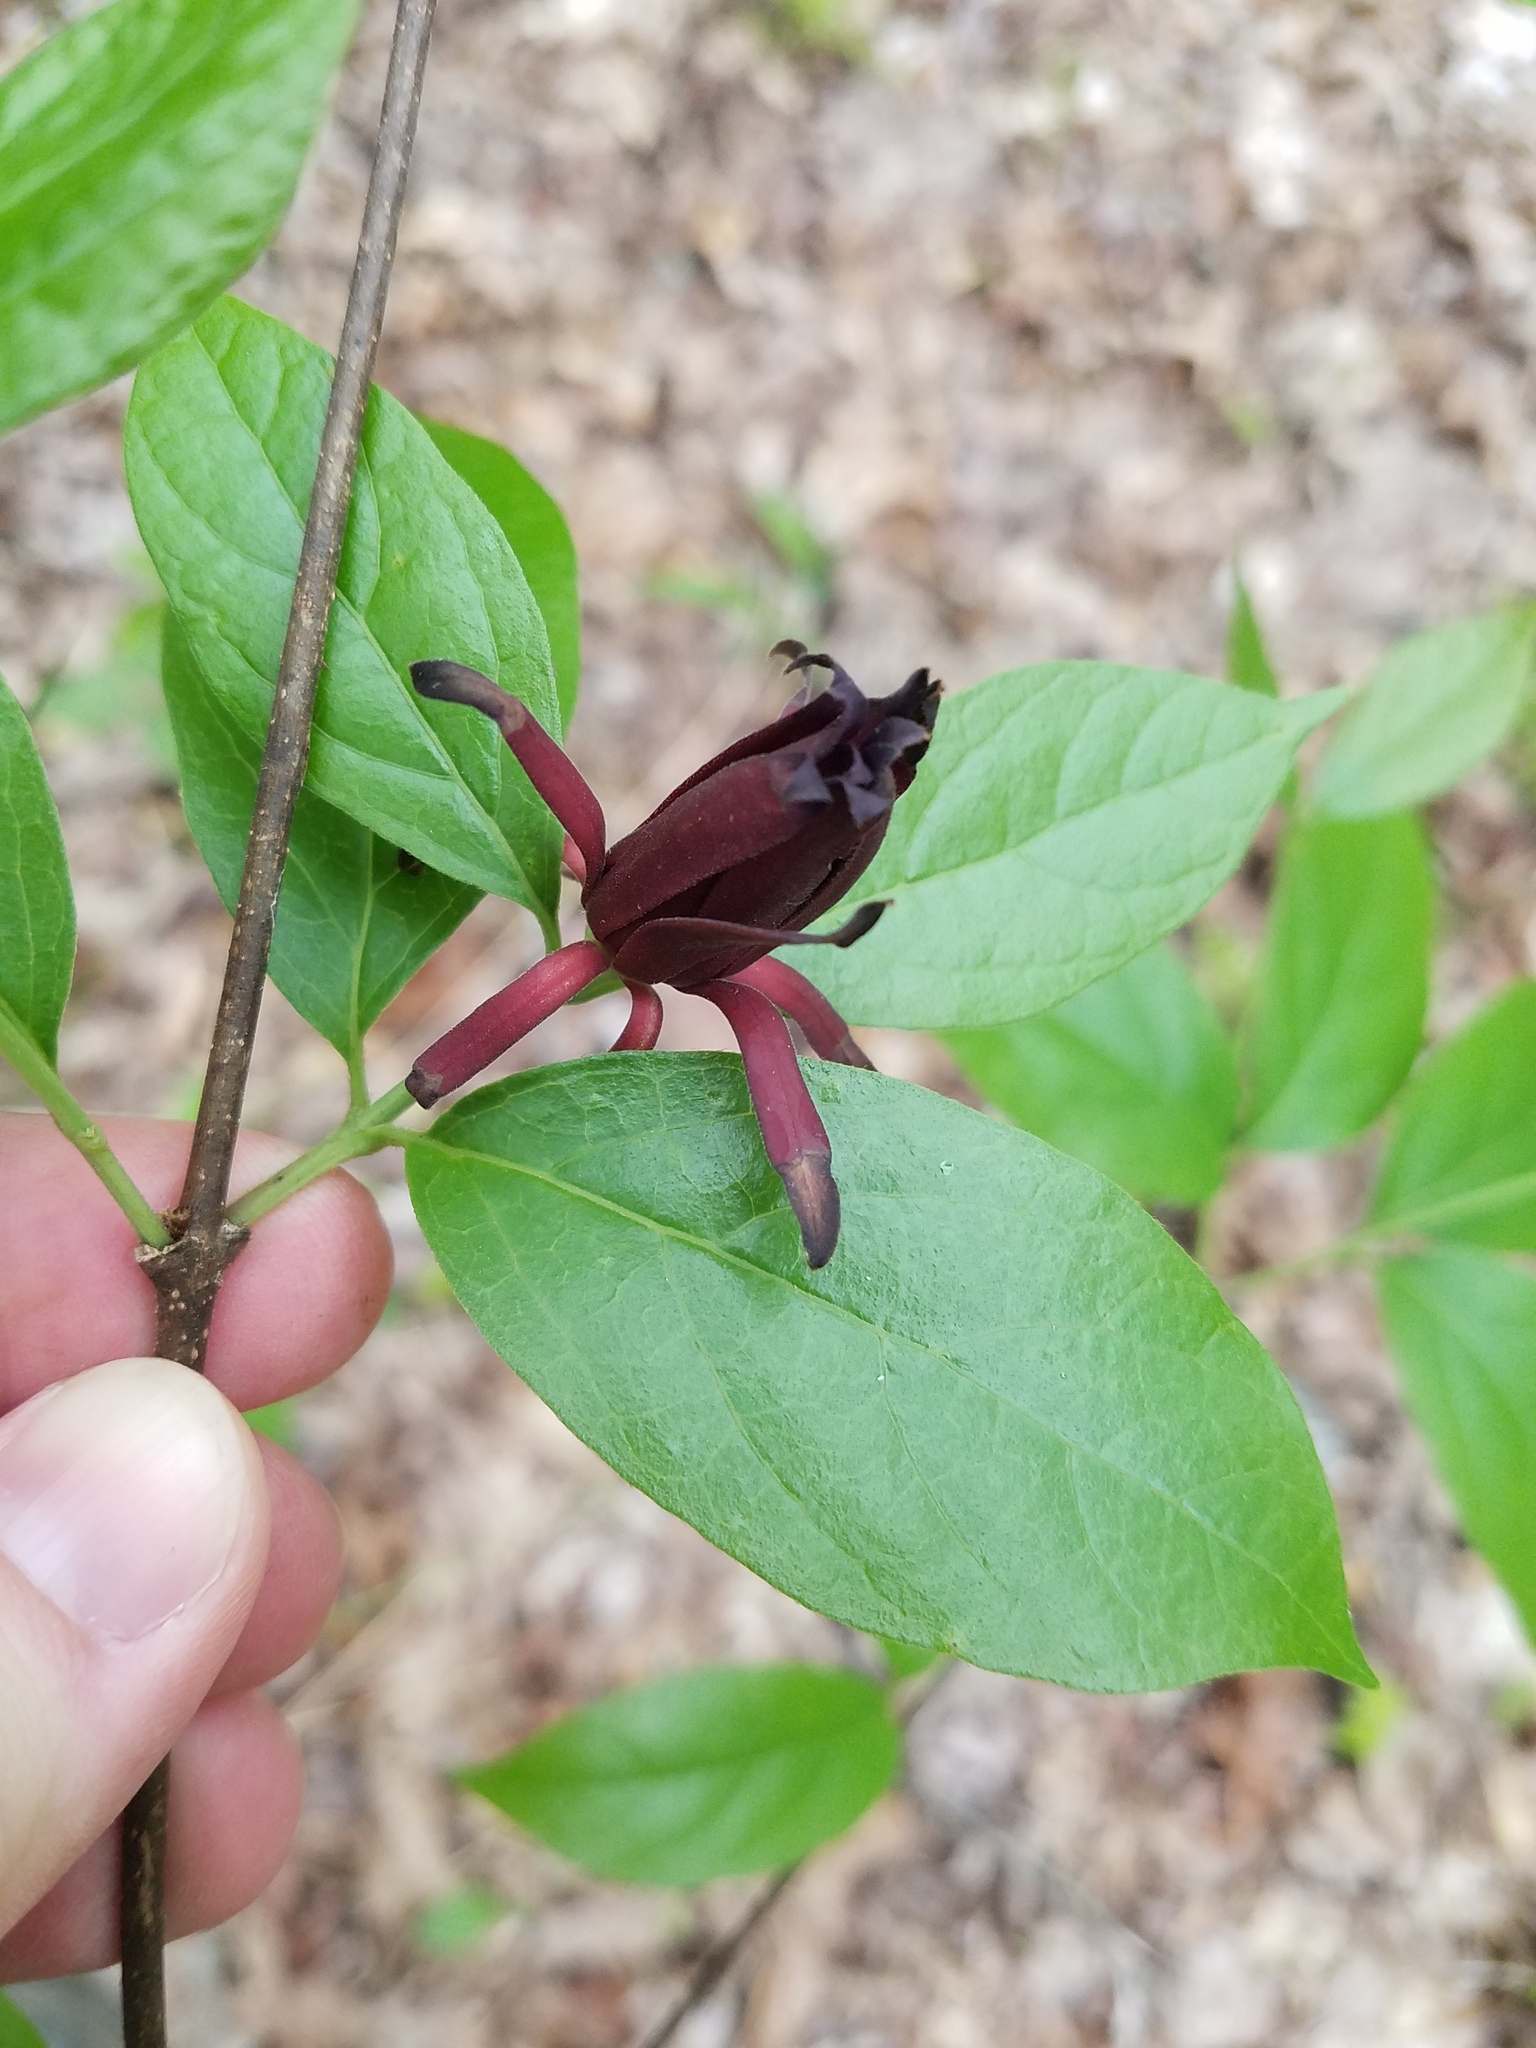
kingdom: Plantae
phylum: Tracheophyta
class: Magnoliopsida
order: Laurales
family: Calycanthaceae
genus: Calycanthus
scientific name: Calycanthus floridus
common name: Carolina-allspice
